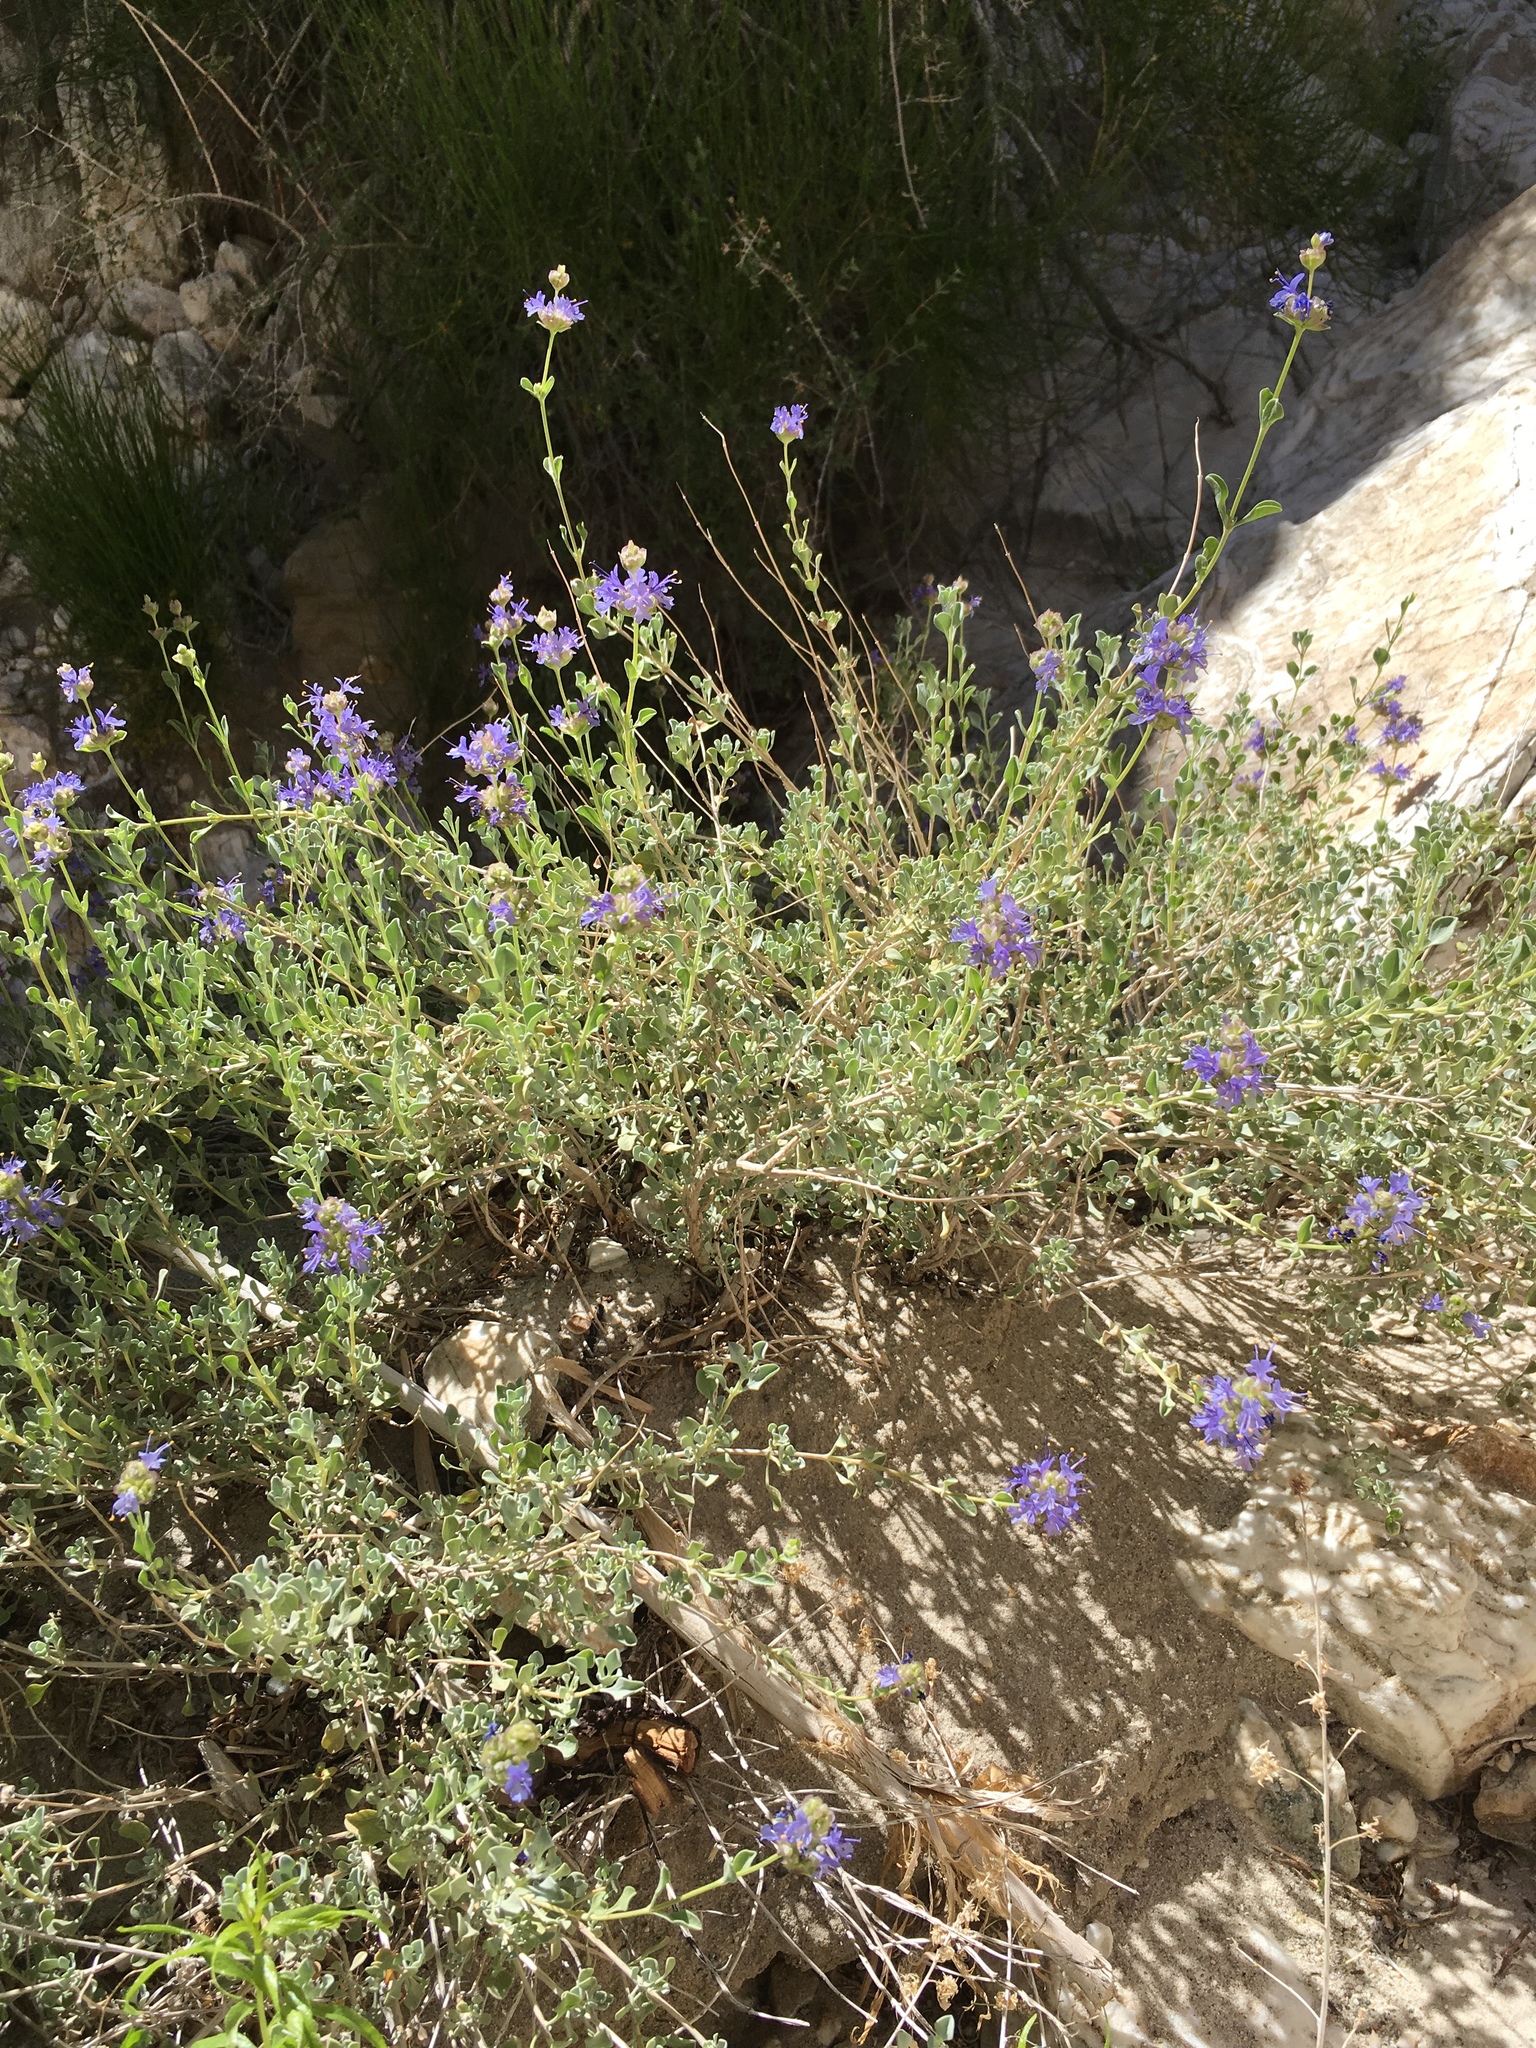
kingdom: Plantae
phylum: Tracheophyta
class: Magnoliopsida
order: Lamiales
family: Lamiaceae
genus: Salvia
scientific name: Salvia dorrii
